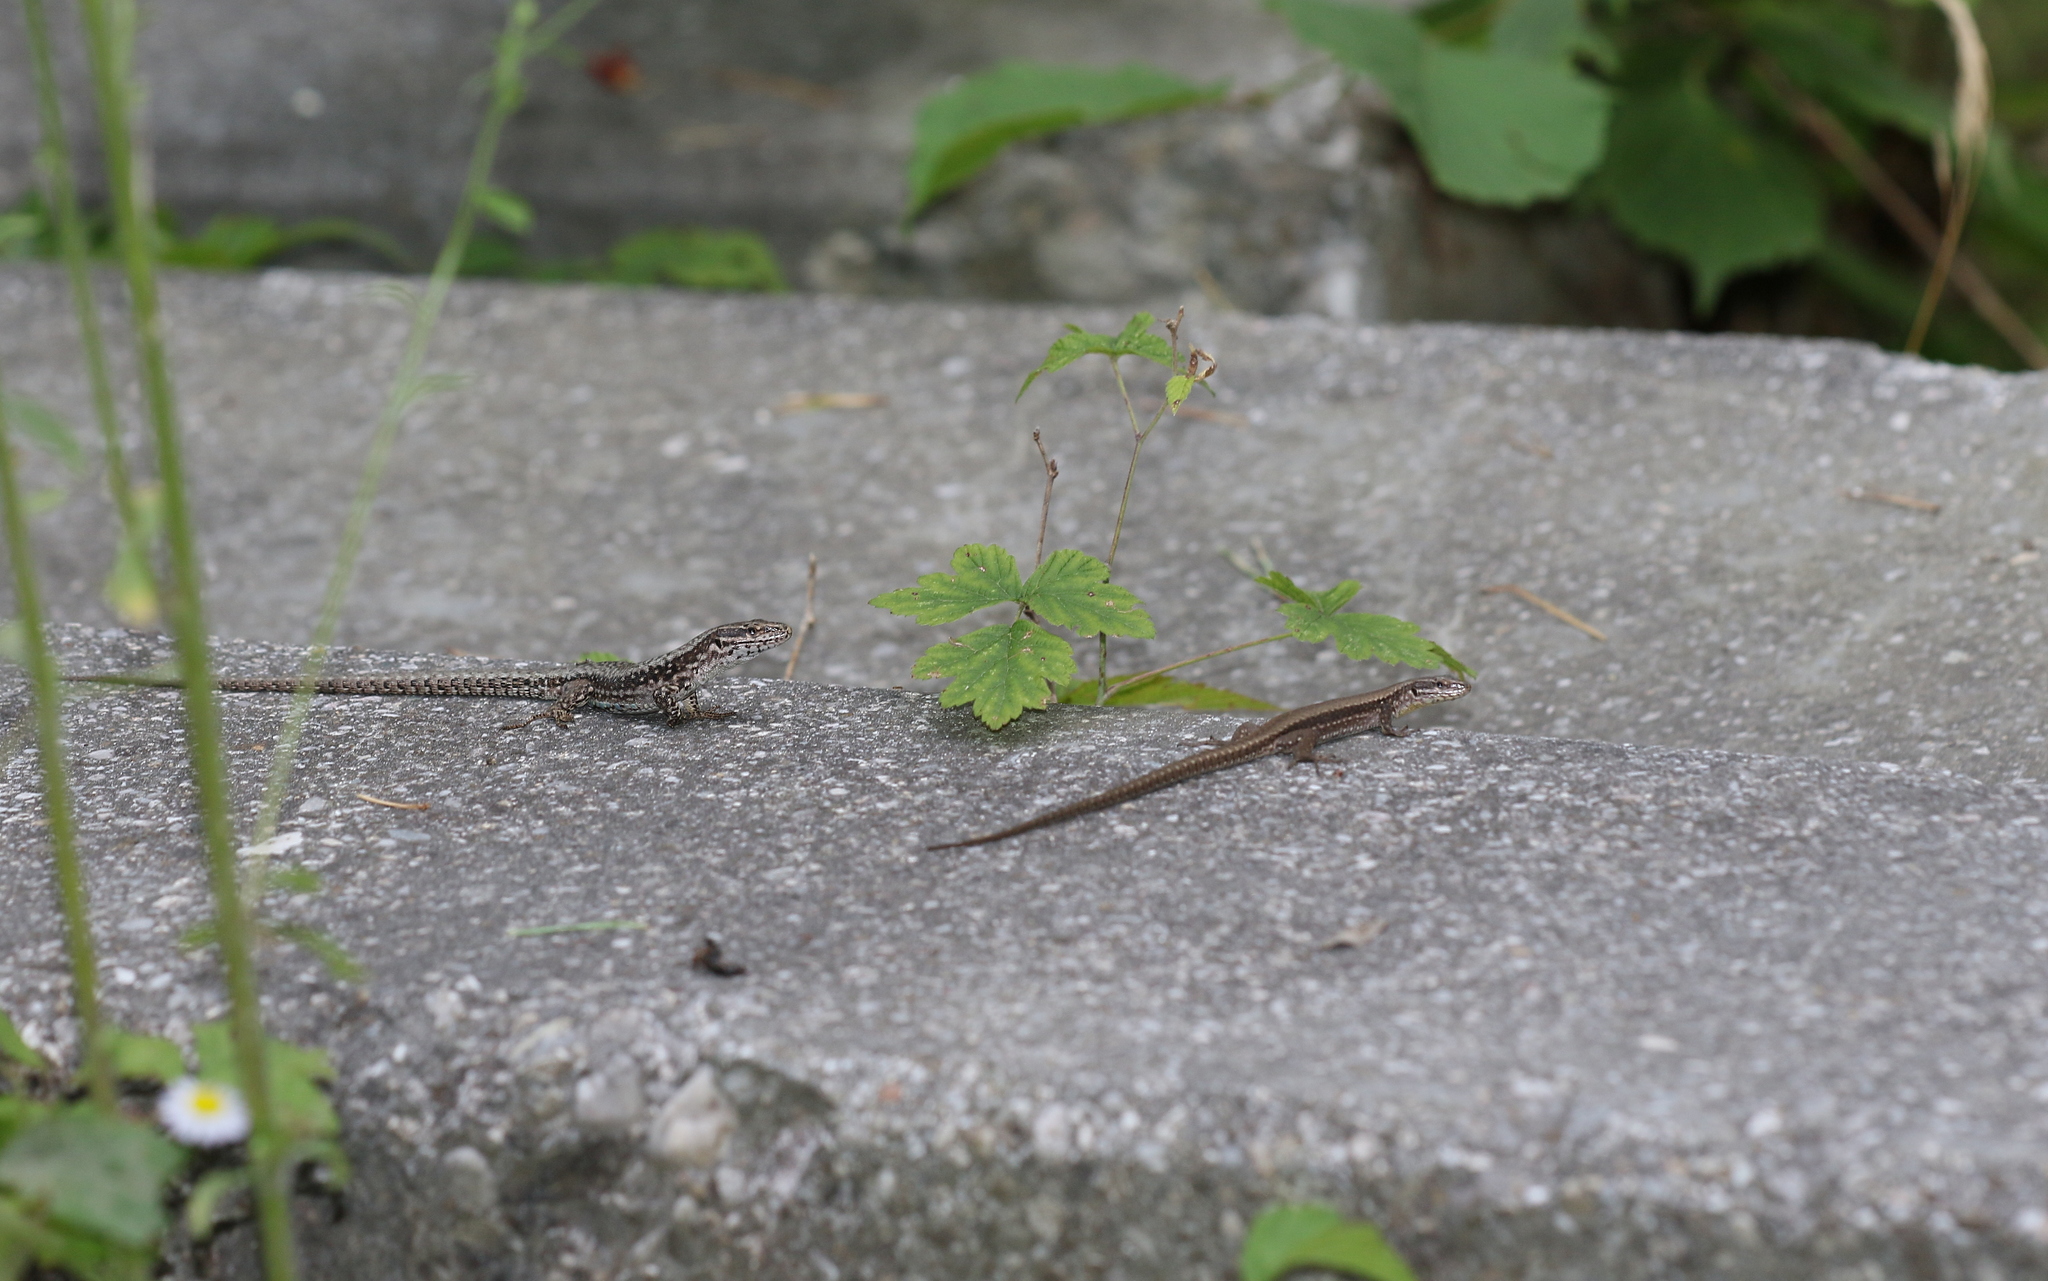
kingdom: Animalia
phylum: Chordata
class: Squamata
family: Lacertidae
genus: Podarcis
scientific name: Podarcis muralis
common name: Common wall lizard
